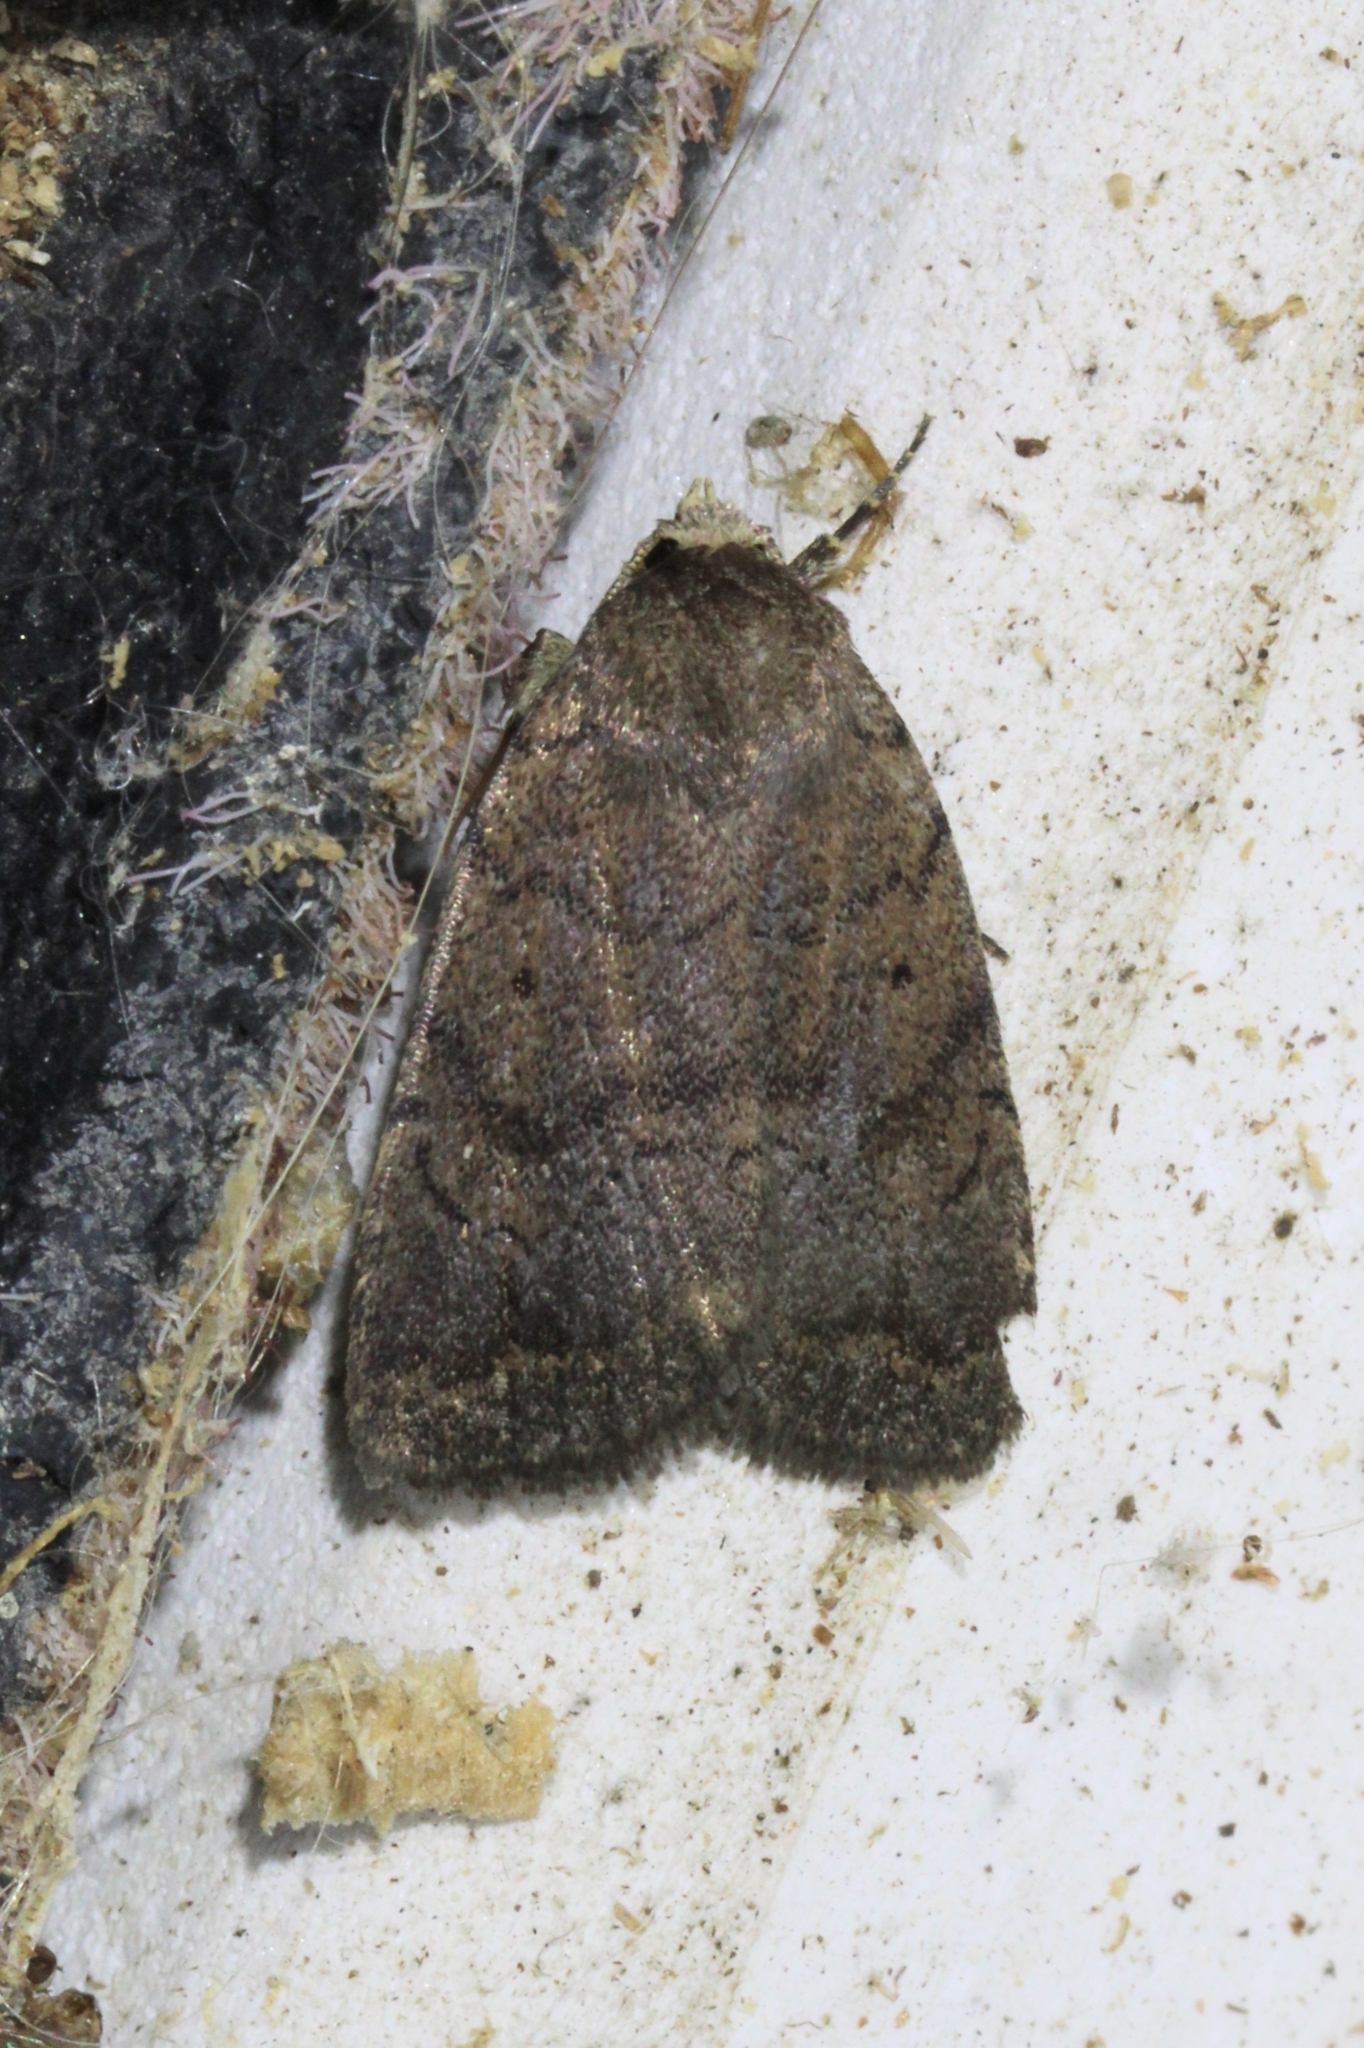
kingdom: Animalia
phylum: Arthropoda
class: Insecta
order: Lepidoptera
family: Noctuidae
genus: Athetis
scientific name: Athetis tarda
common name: Slowpoke moth
